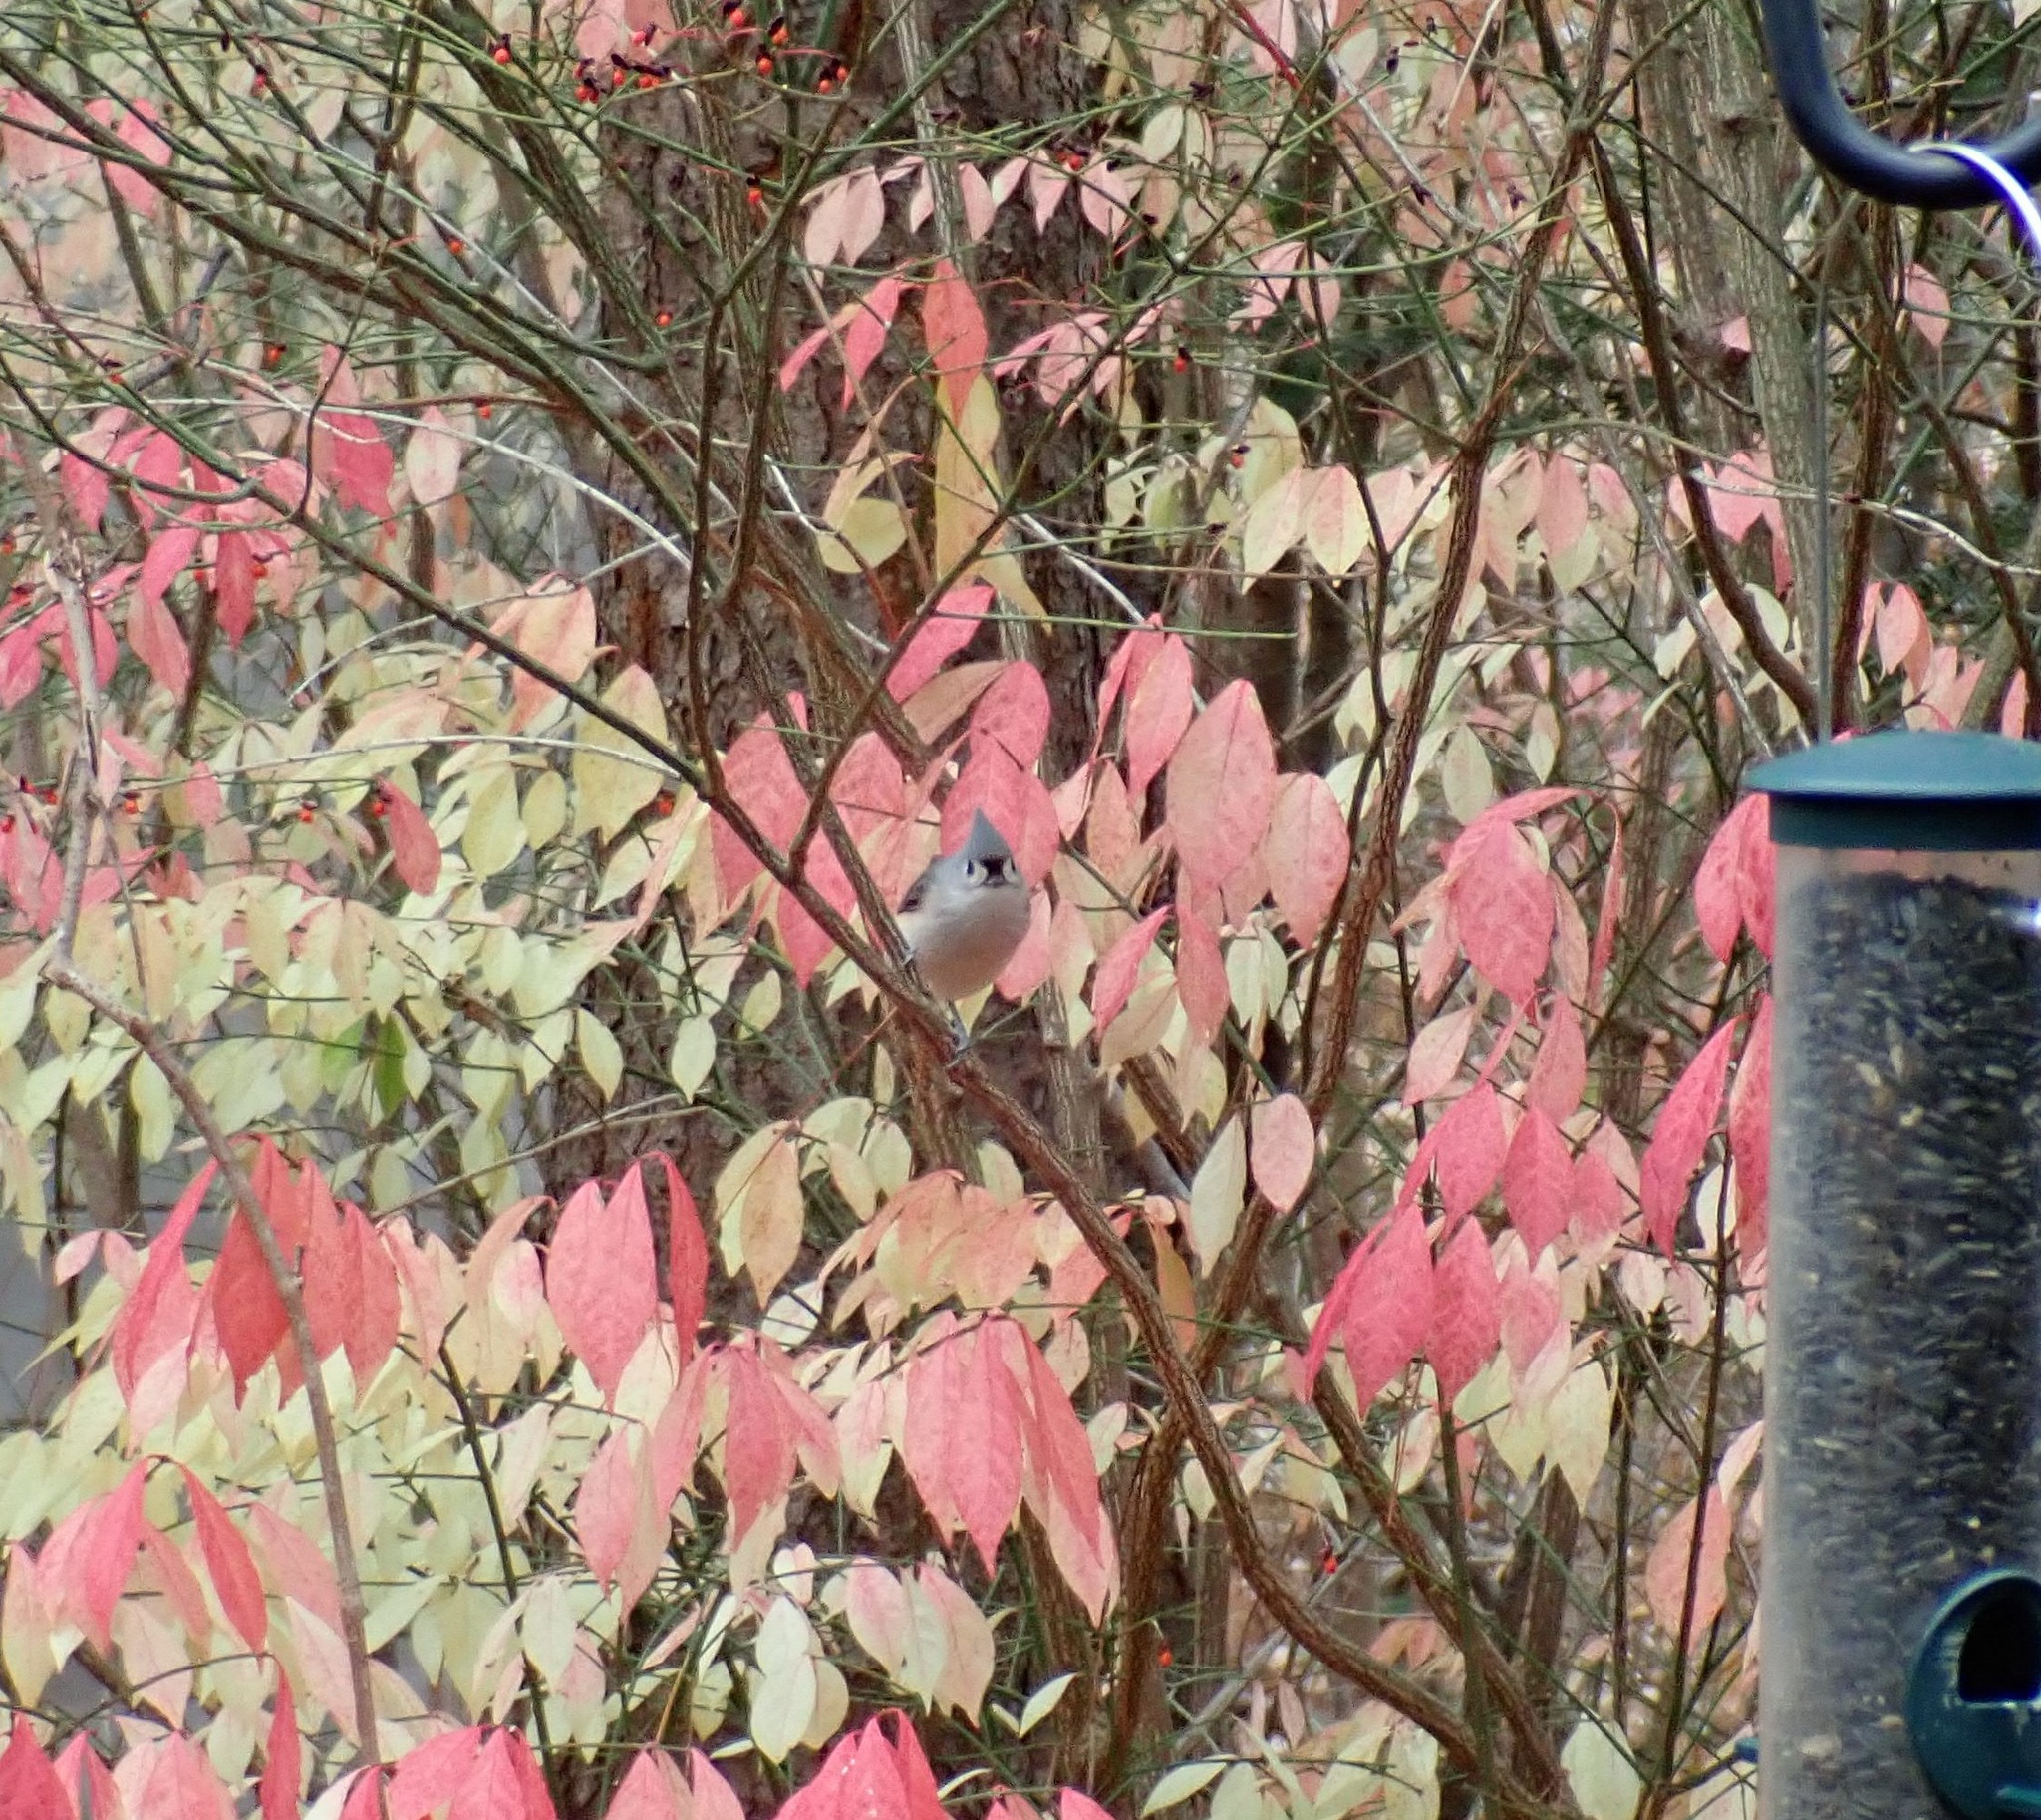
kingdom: Animalia
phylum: Chordata
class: Aves
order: Passeriformes
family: Paridae
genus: Baeolophus
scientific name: Baeolophus bicolor
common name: Tufted titmouse
